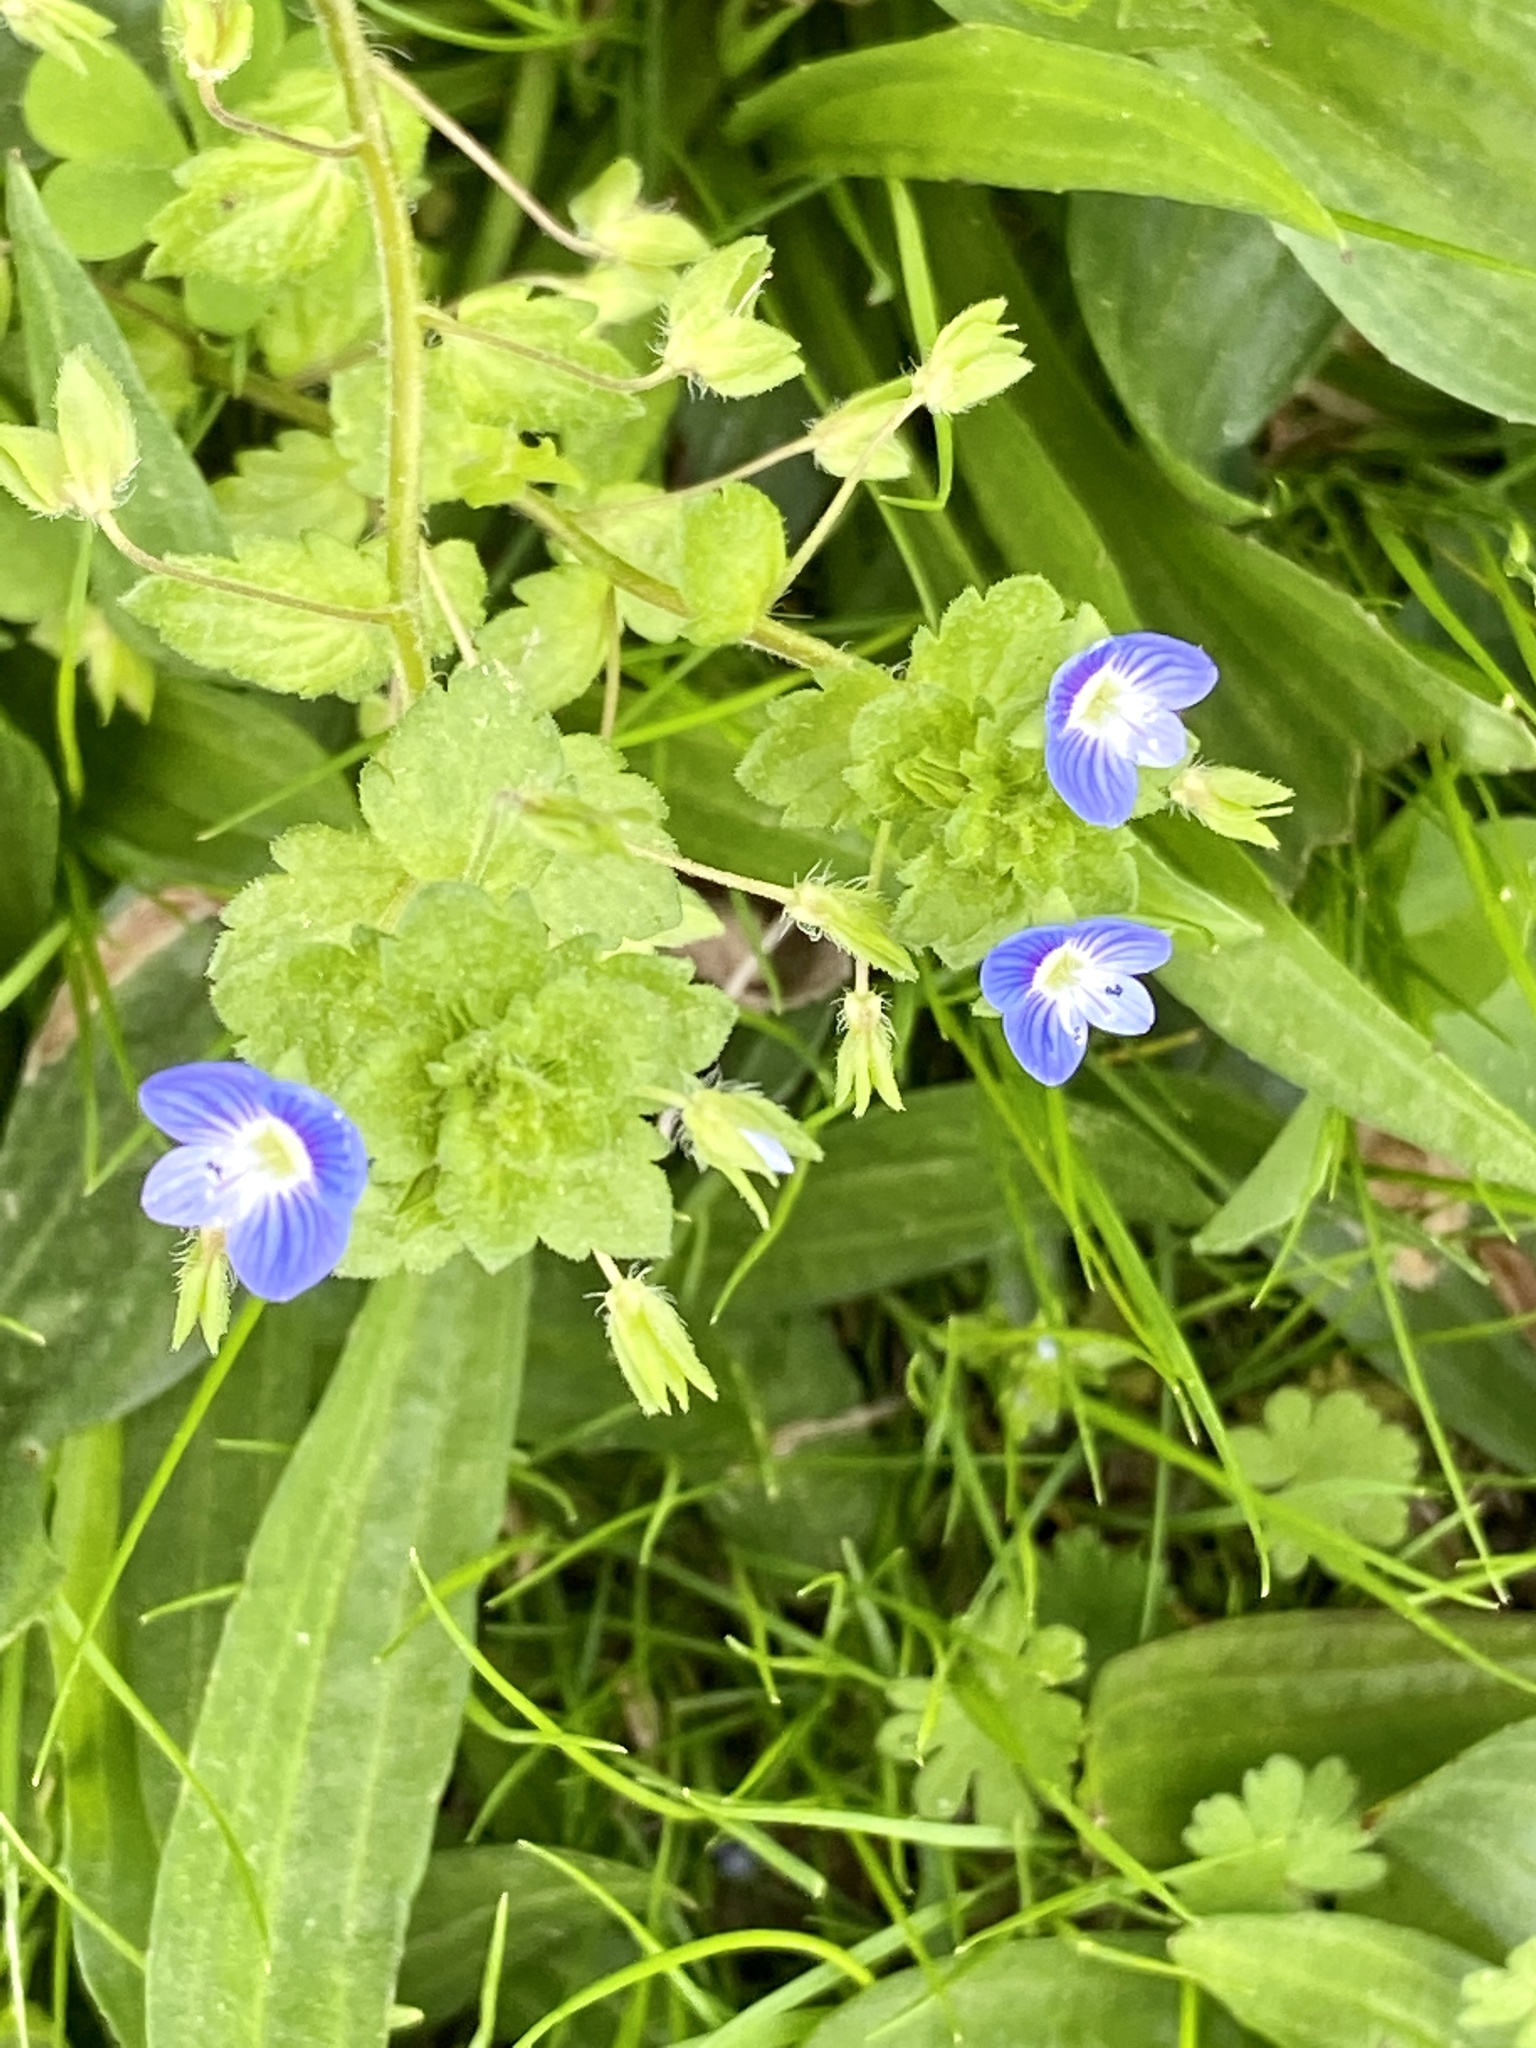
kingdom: Plantae
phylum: Tracheophyta
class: Magnoliopsida
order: Lamiales
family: Plantaginaceae
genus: Veronica
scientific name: Veronica persica
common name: Common field-speedwell
